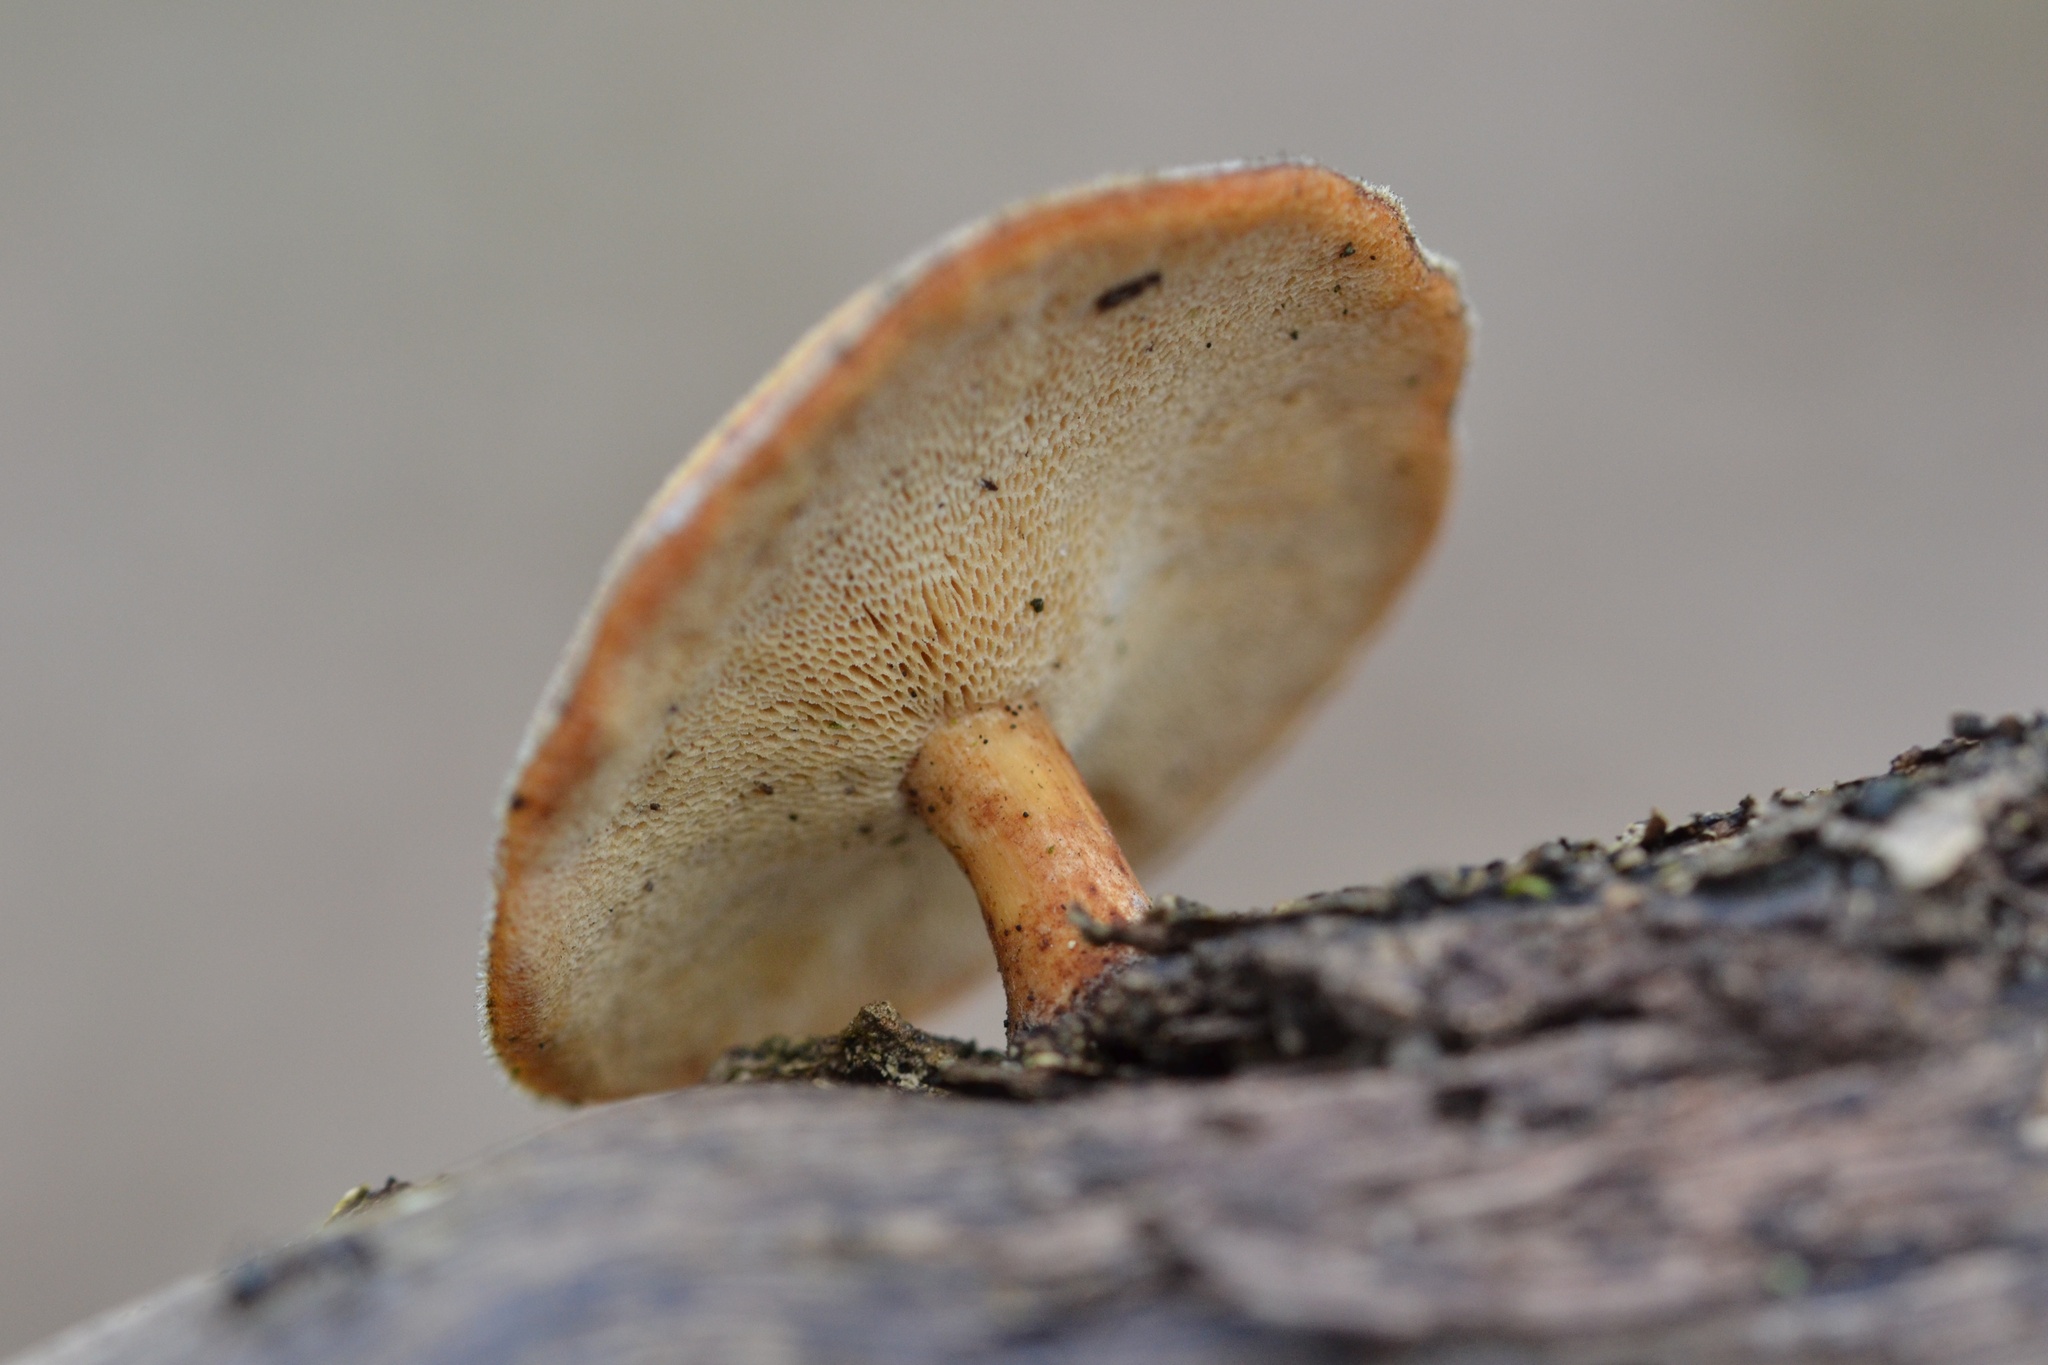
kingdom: Fungi
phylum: Basidiomycota
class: Agaricomycetes
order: Polyporales
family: Polyporaceae
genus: Lentinus
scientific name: Lentinus brumalis
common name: Winter polypore
